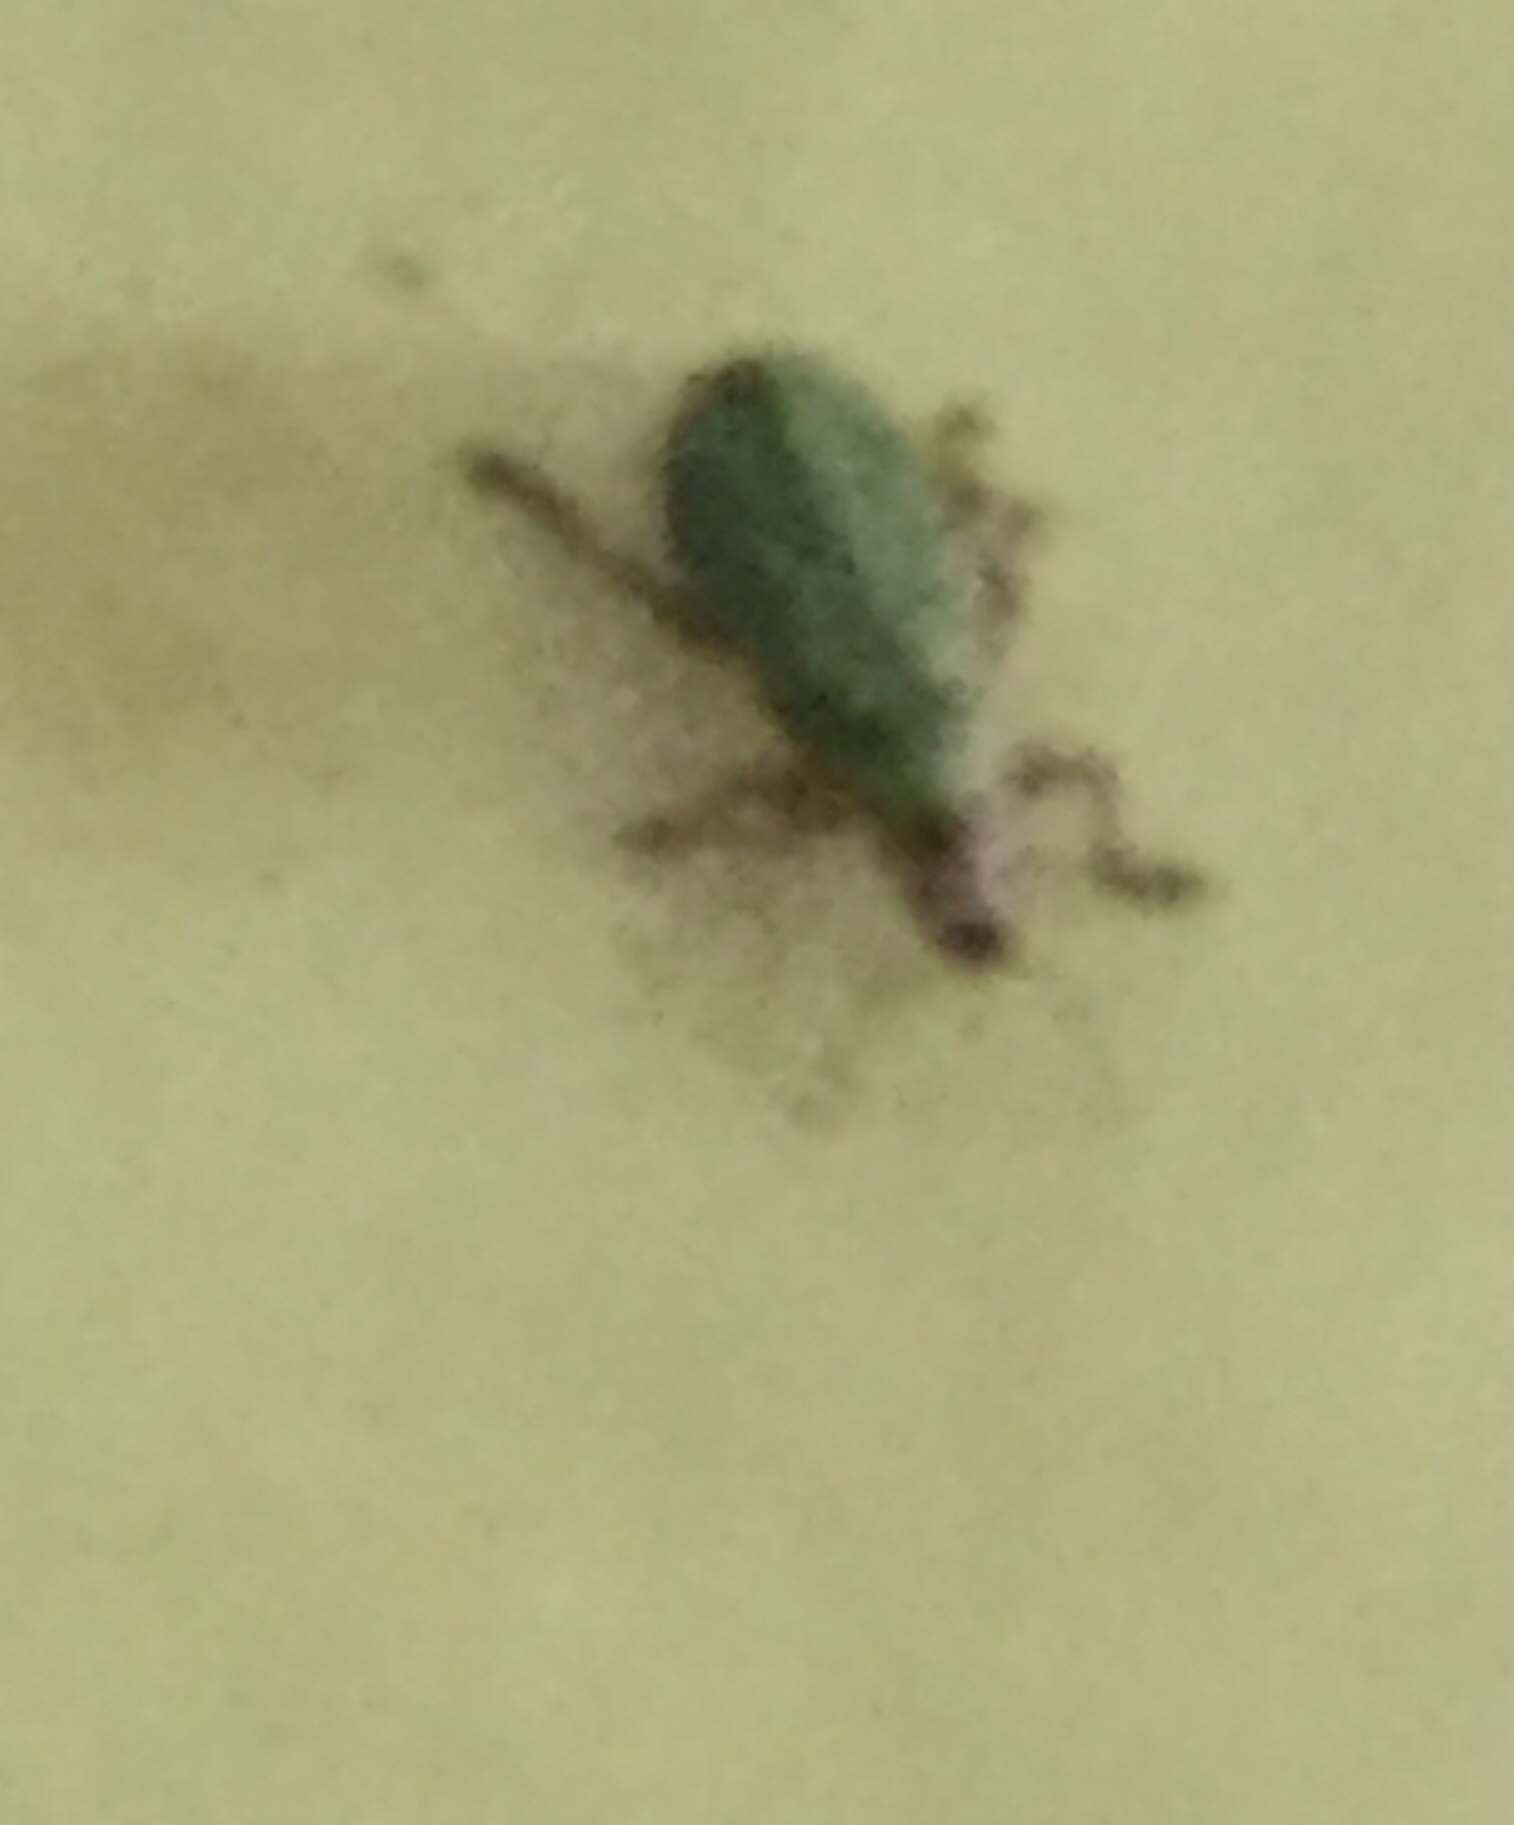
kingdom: Animalia
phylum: Arthropoda
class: Insecta
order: Coleoptera
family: Curculionidae
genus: Pachyrhinus
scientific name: Pachyrhinus lethierryi
